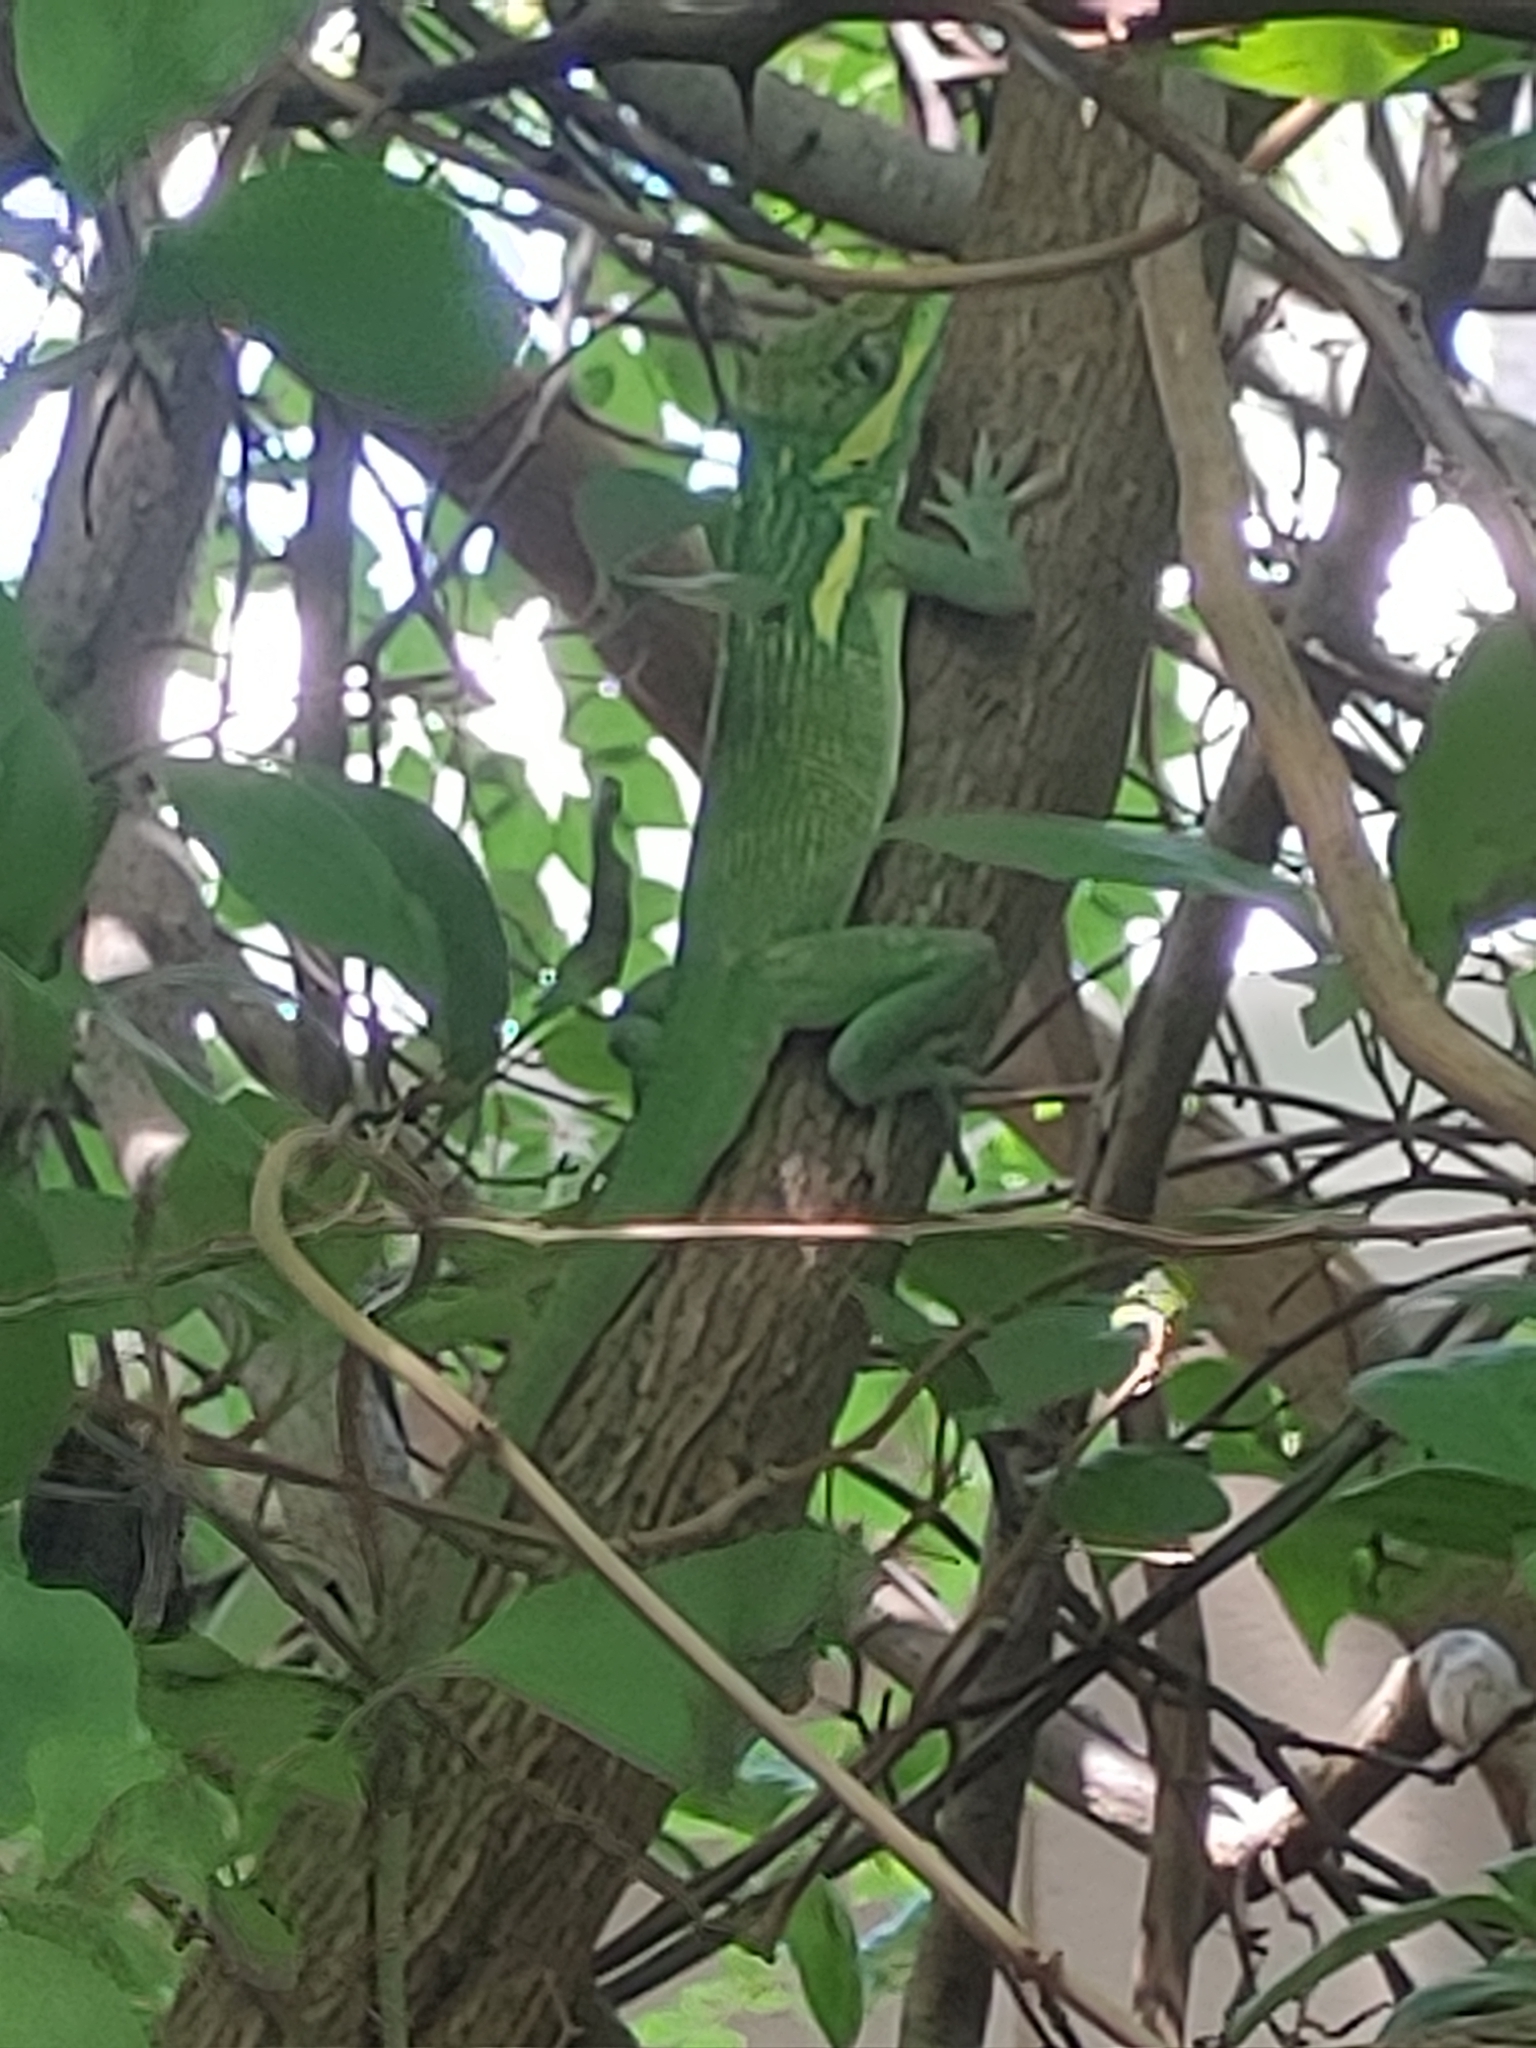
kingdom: Animalia
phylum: Chordata
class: Squamata
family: Dactyloidae
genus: Anolis
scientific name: Anolis equestris
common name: Knight anole
